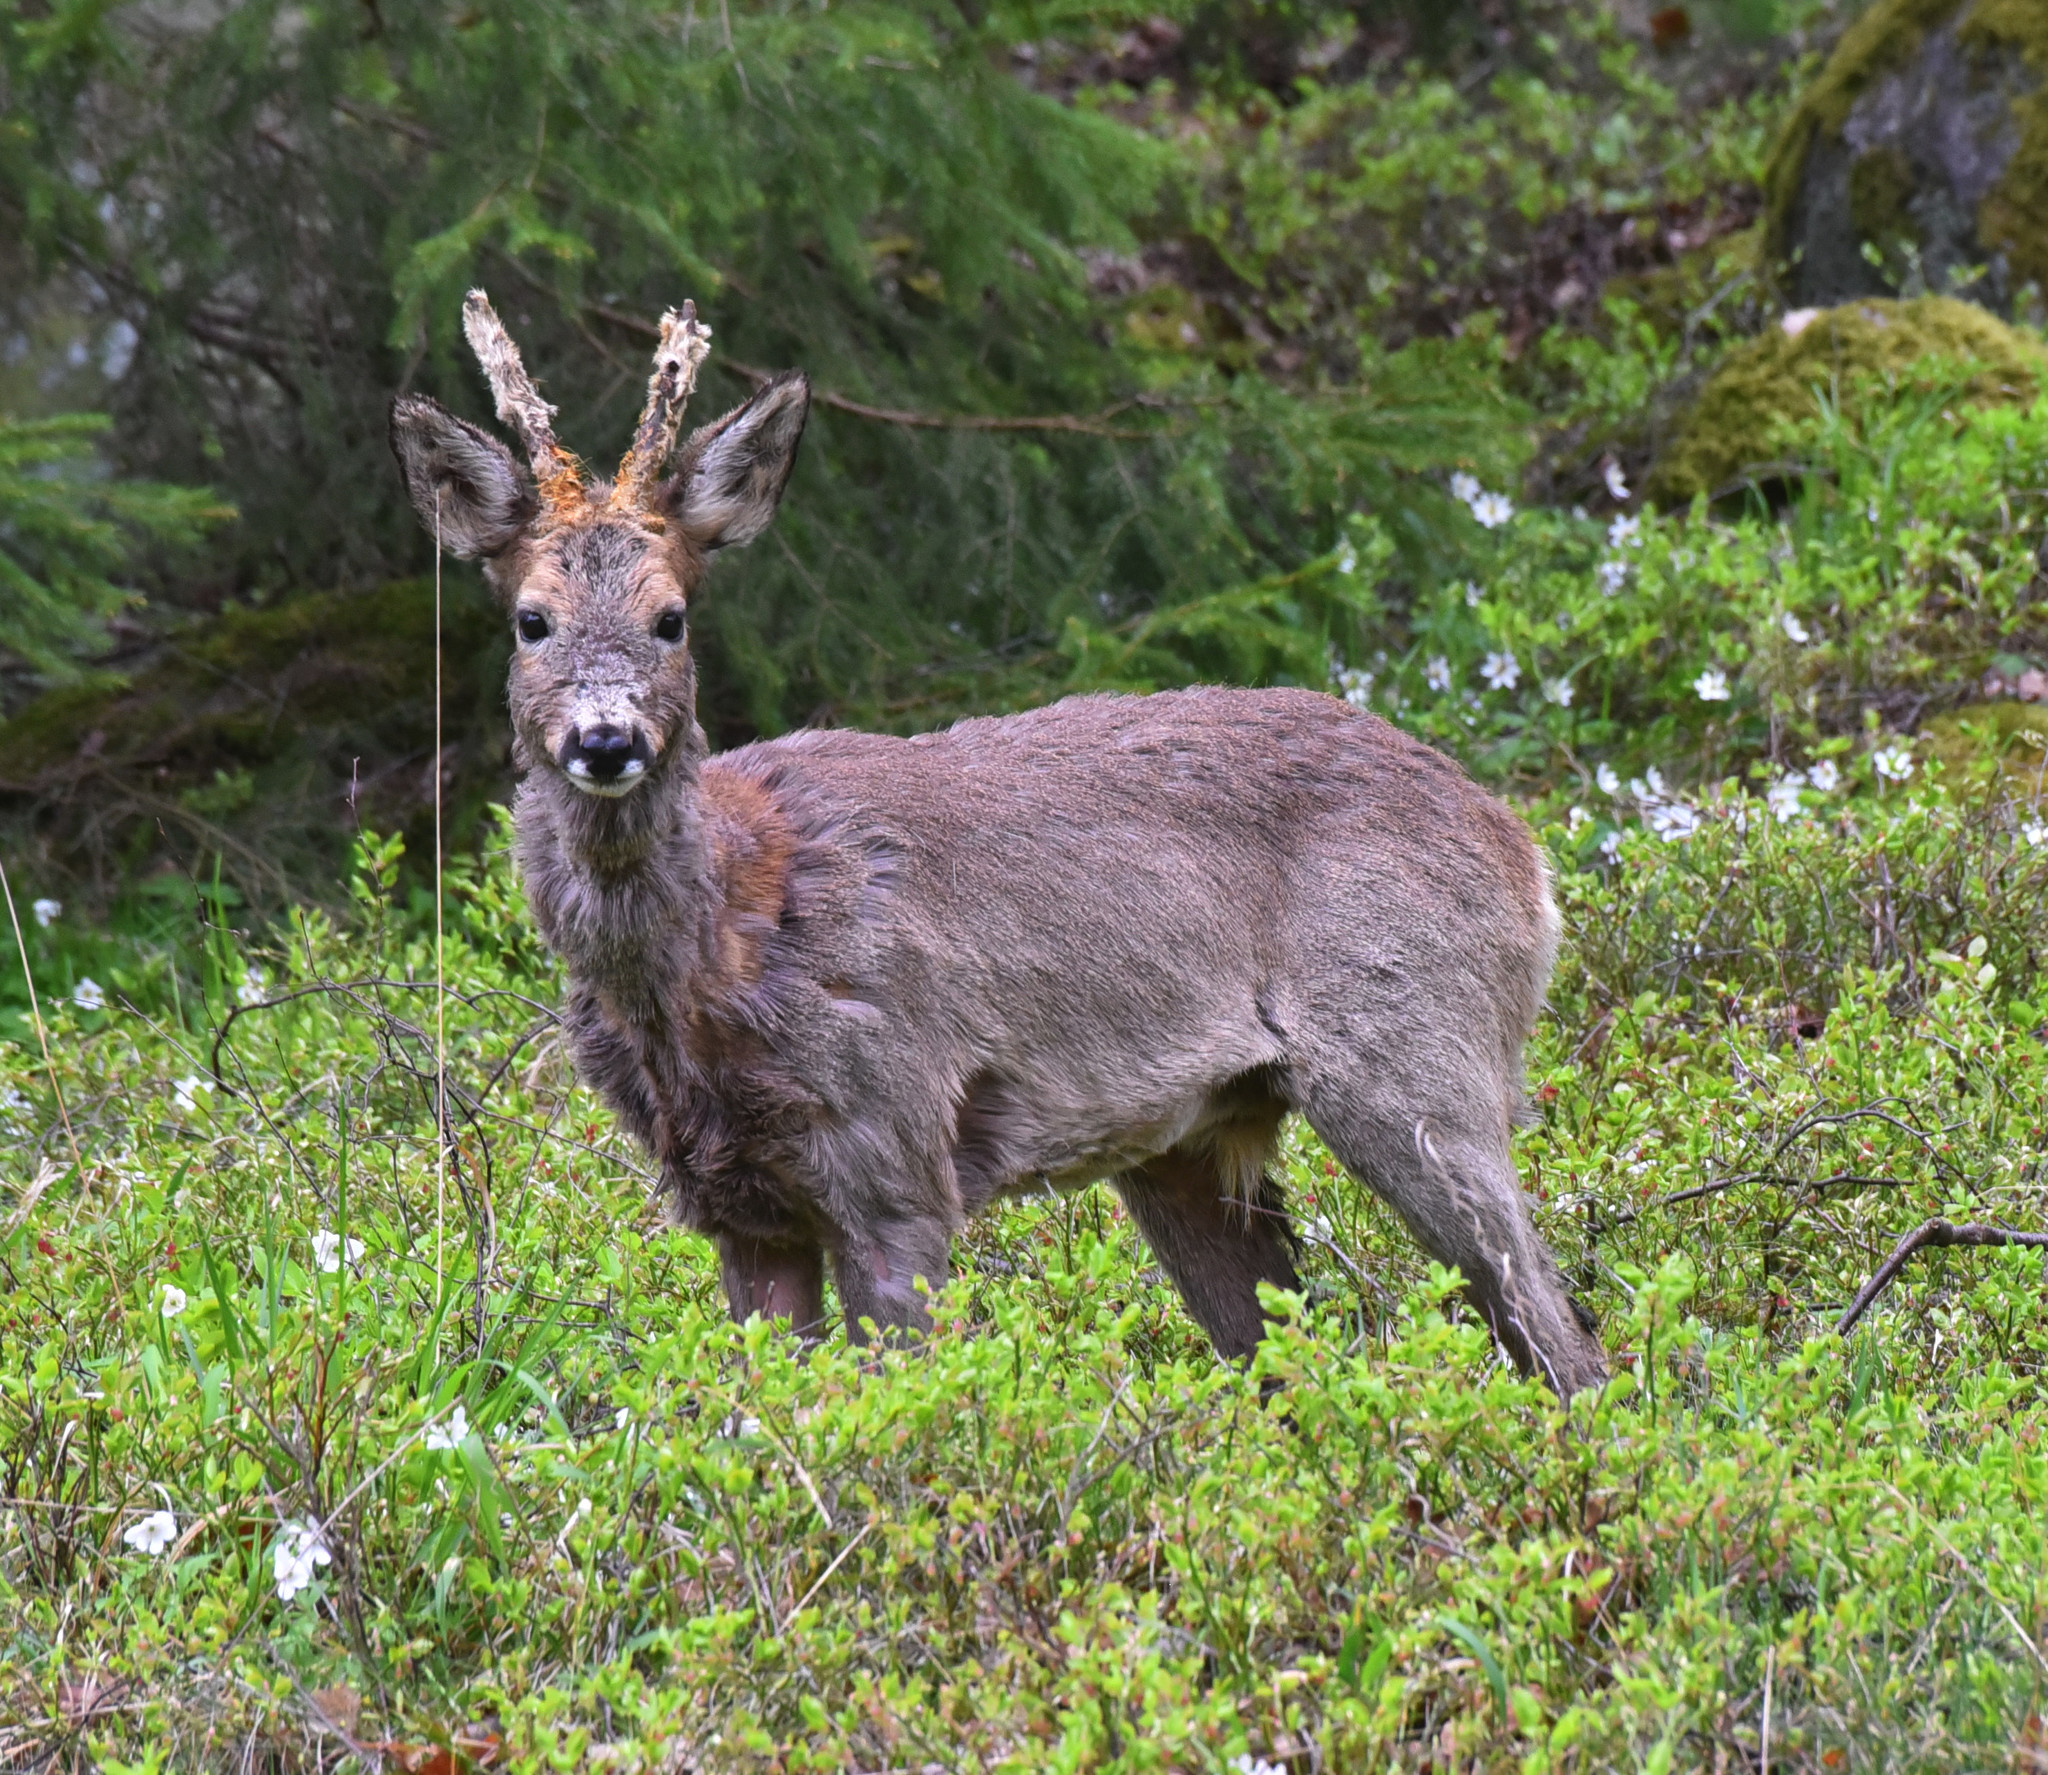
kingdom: Animalia
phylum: Chordata
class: Mammalia
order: Artiodactyla
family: Cervidae
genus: Capreolus
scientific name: Capreolus capreolus
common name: Western roe deer
